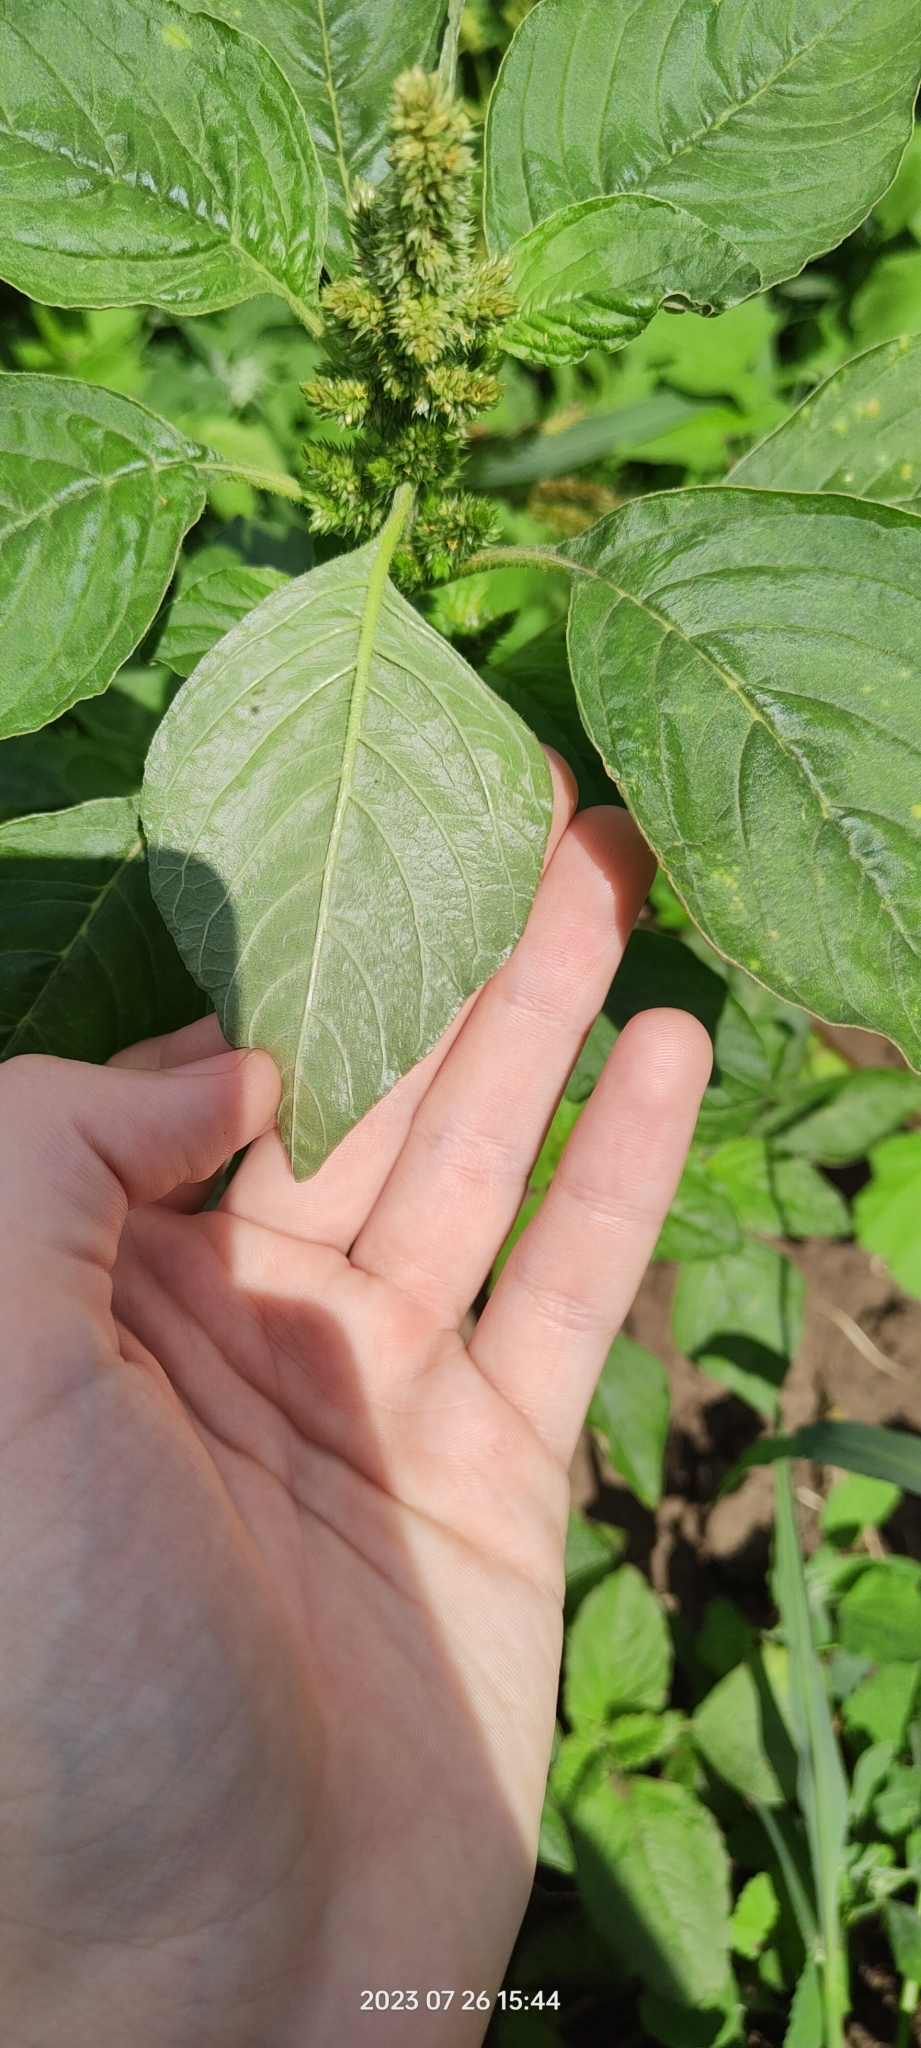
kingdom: Plantae
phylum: Tracheophyta
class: Magnoliopsida
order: Caryophyllales
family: Amaranthaceae
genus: Amaranthus
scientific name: Amaranthus retroflexus
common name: Redroot amaranth
